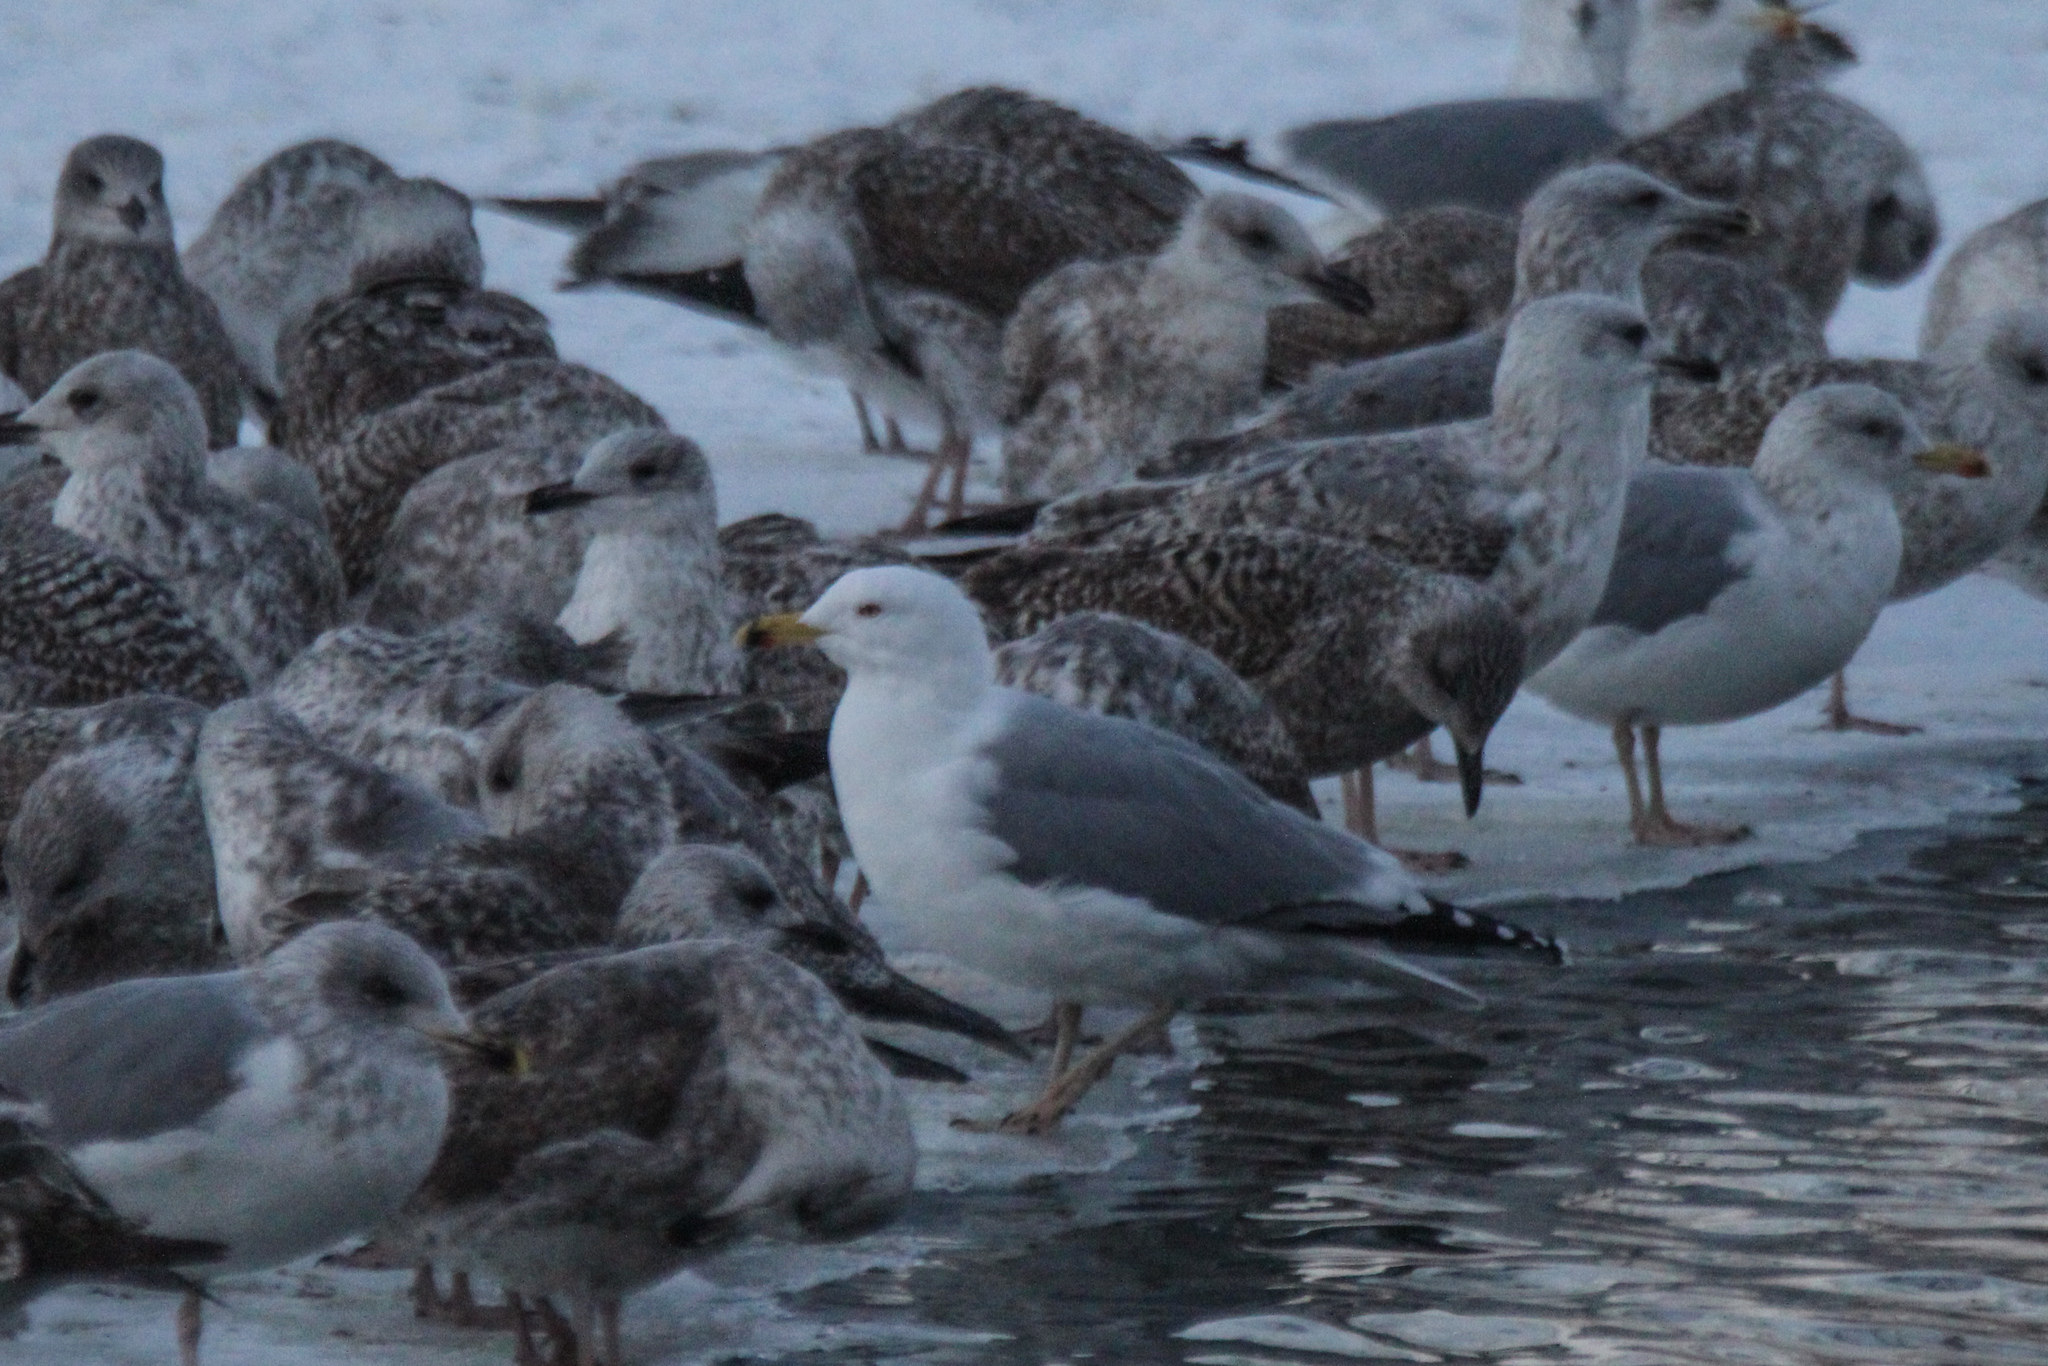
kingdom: Animalia
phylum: Chordata
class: Aves
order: Charadriiformes
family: Laridae
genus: Larus
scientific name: Larus argentatus
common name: Herring gull
